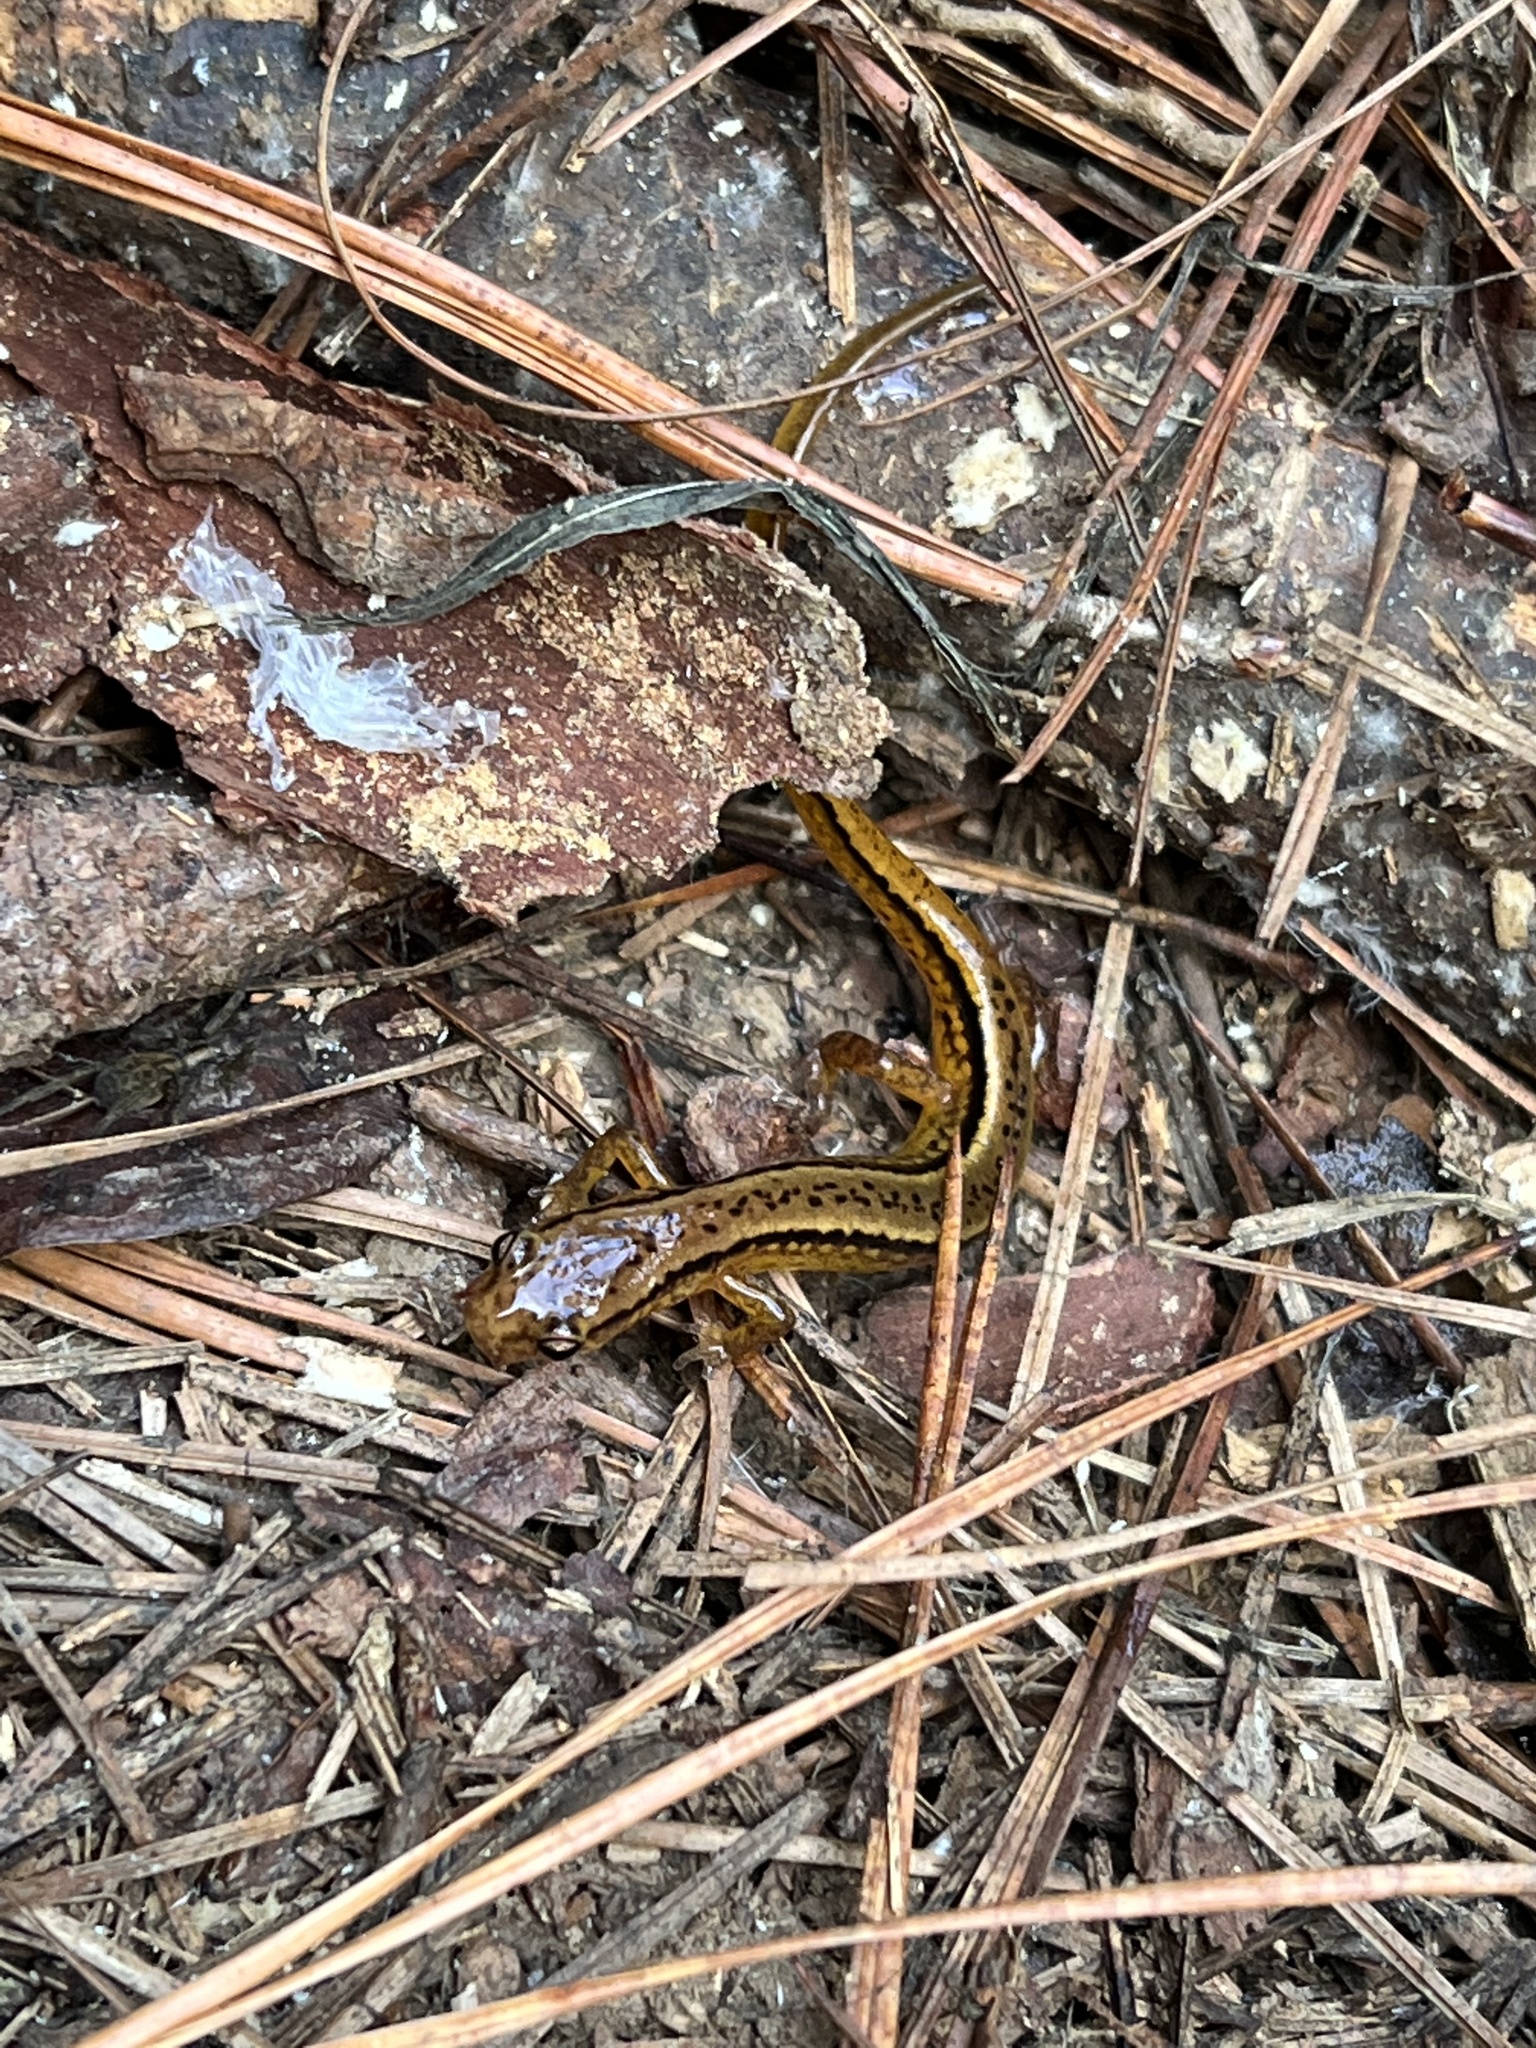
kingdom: Animalia
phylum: Chordata
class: Amphibia
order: Caudata
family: Plethodontidae
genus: Eurycea
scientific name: Eurycea cirrigera
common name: Southern two-lined salamander
